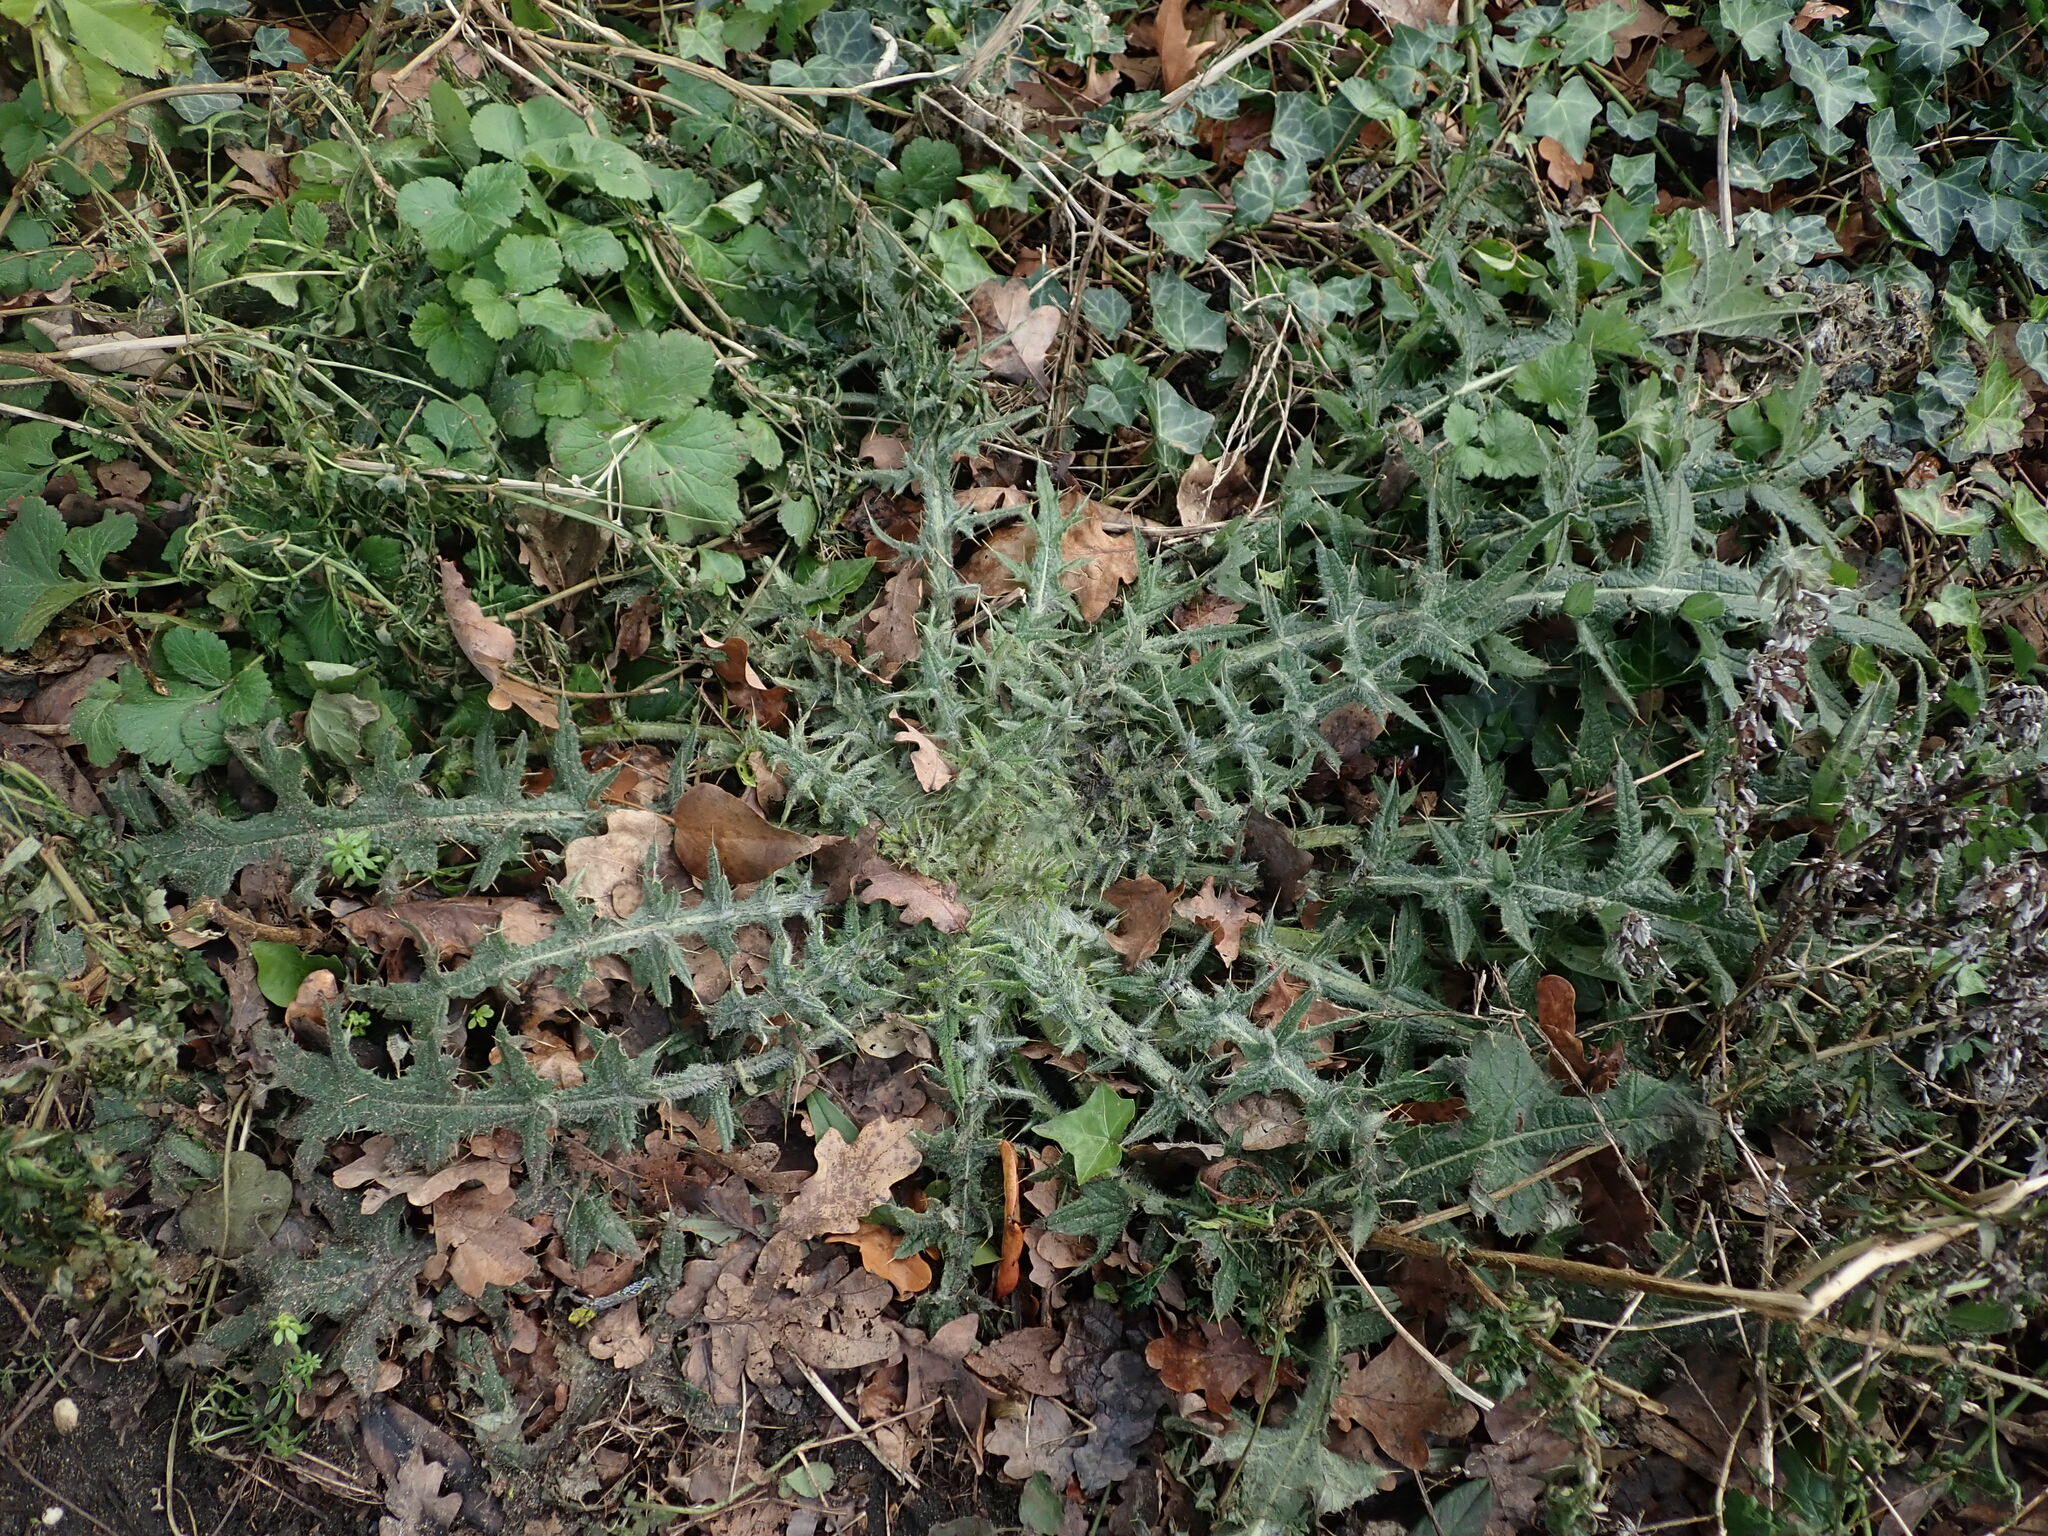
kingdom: Plantae
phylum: Tracheophyta
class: Magnoliopsida
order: Asterales
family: Asteraceae
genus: Cirsium
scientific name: Cirsium vulgare
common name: Bull thistle
